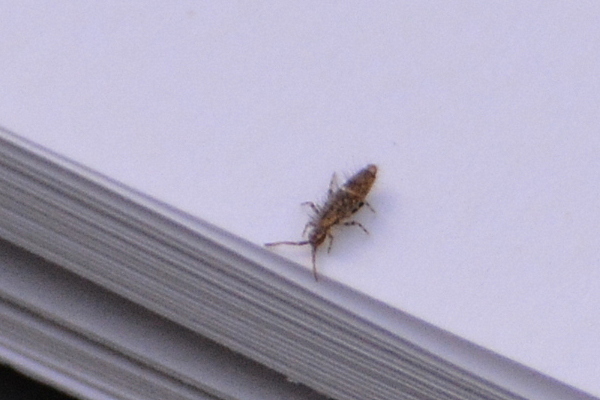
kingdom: Animalia
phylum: Arthropoda
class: Collembola
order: Entomobryomorpha
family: Entomobryidae
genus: Entomobrya
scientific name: Entomobrya dorsalis
